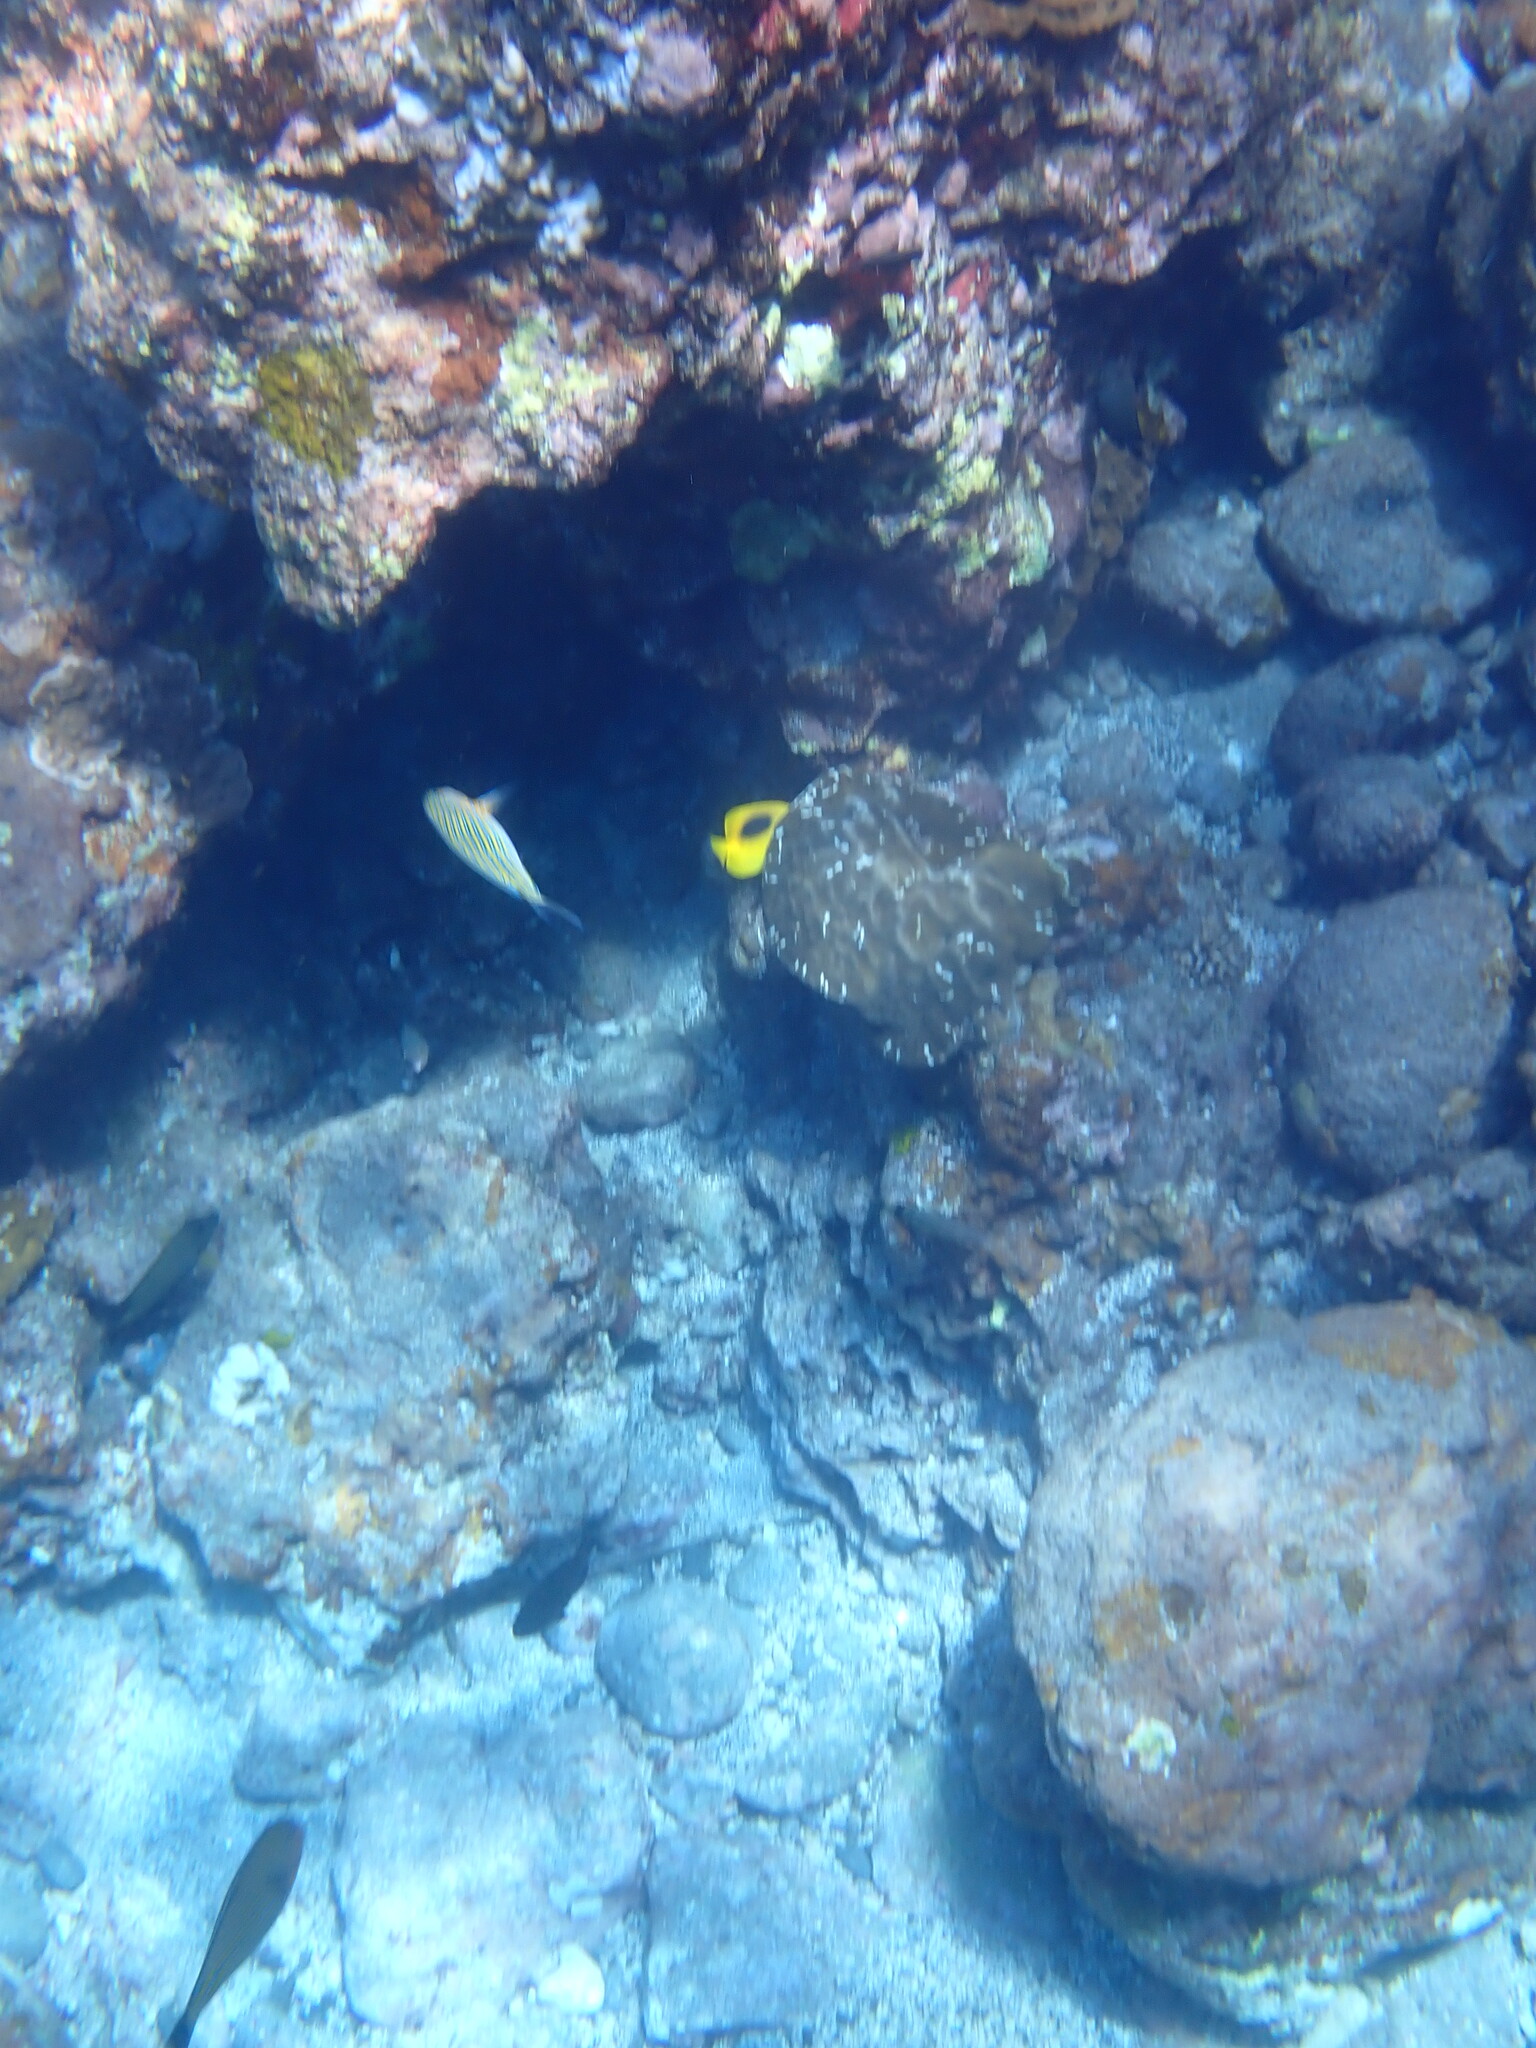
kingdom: Animalia
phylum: Chordata
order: Perciformes
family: Acanthuridae
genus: Acanthurus
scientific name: Acanthurus lineatus
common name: Striped surgeonfish
